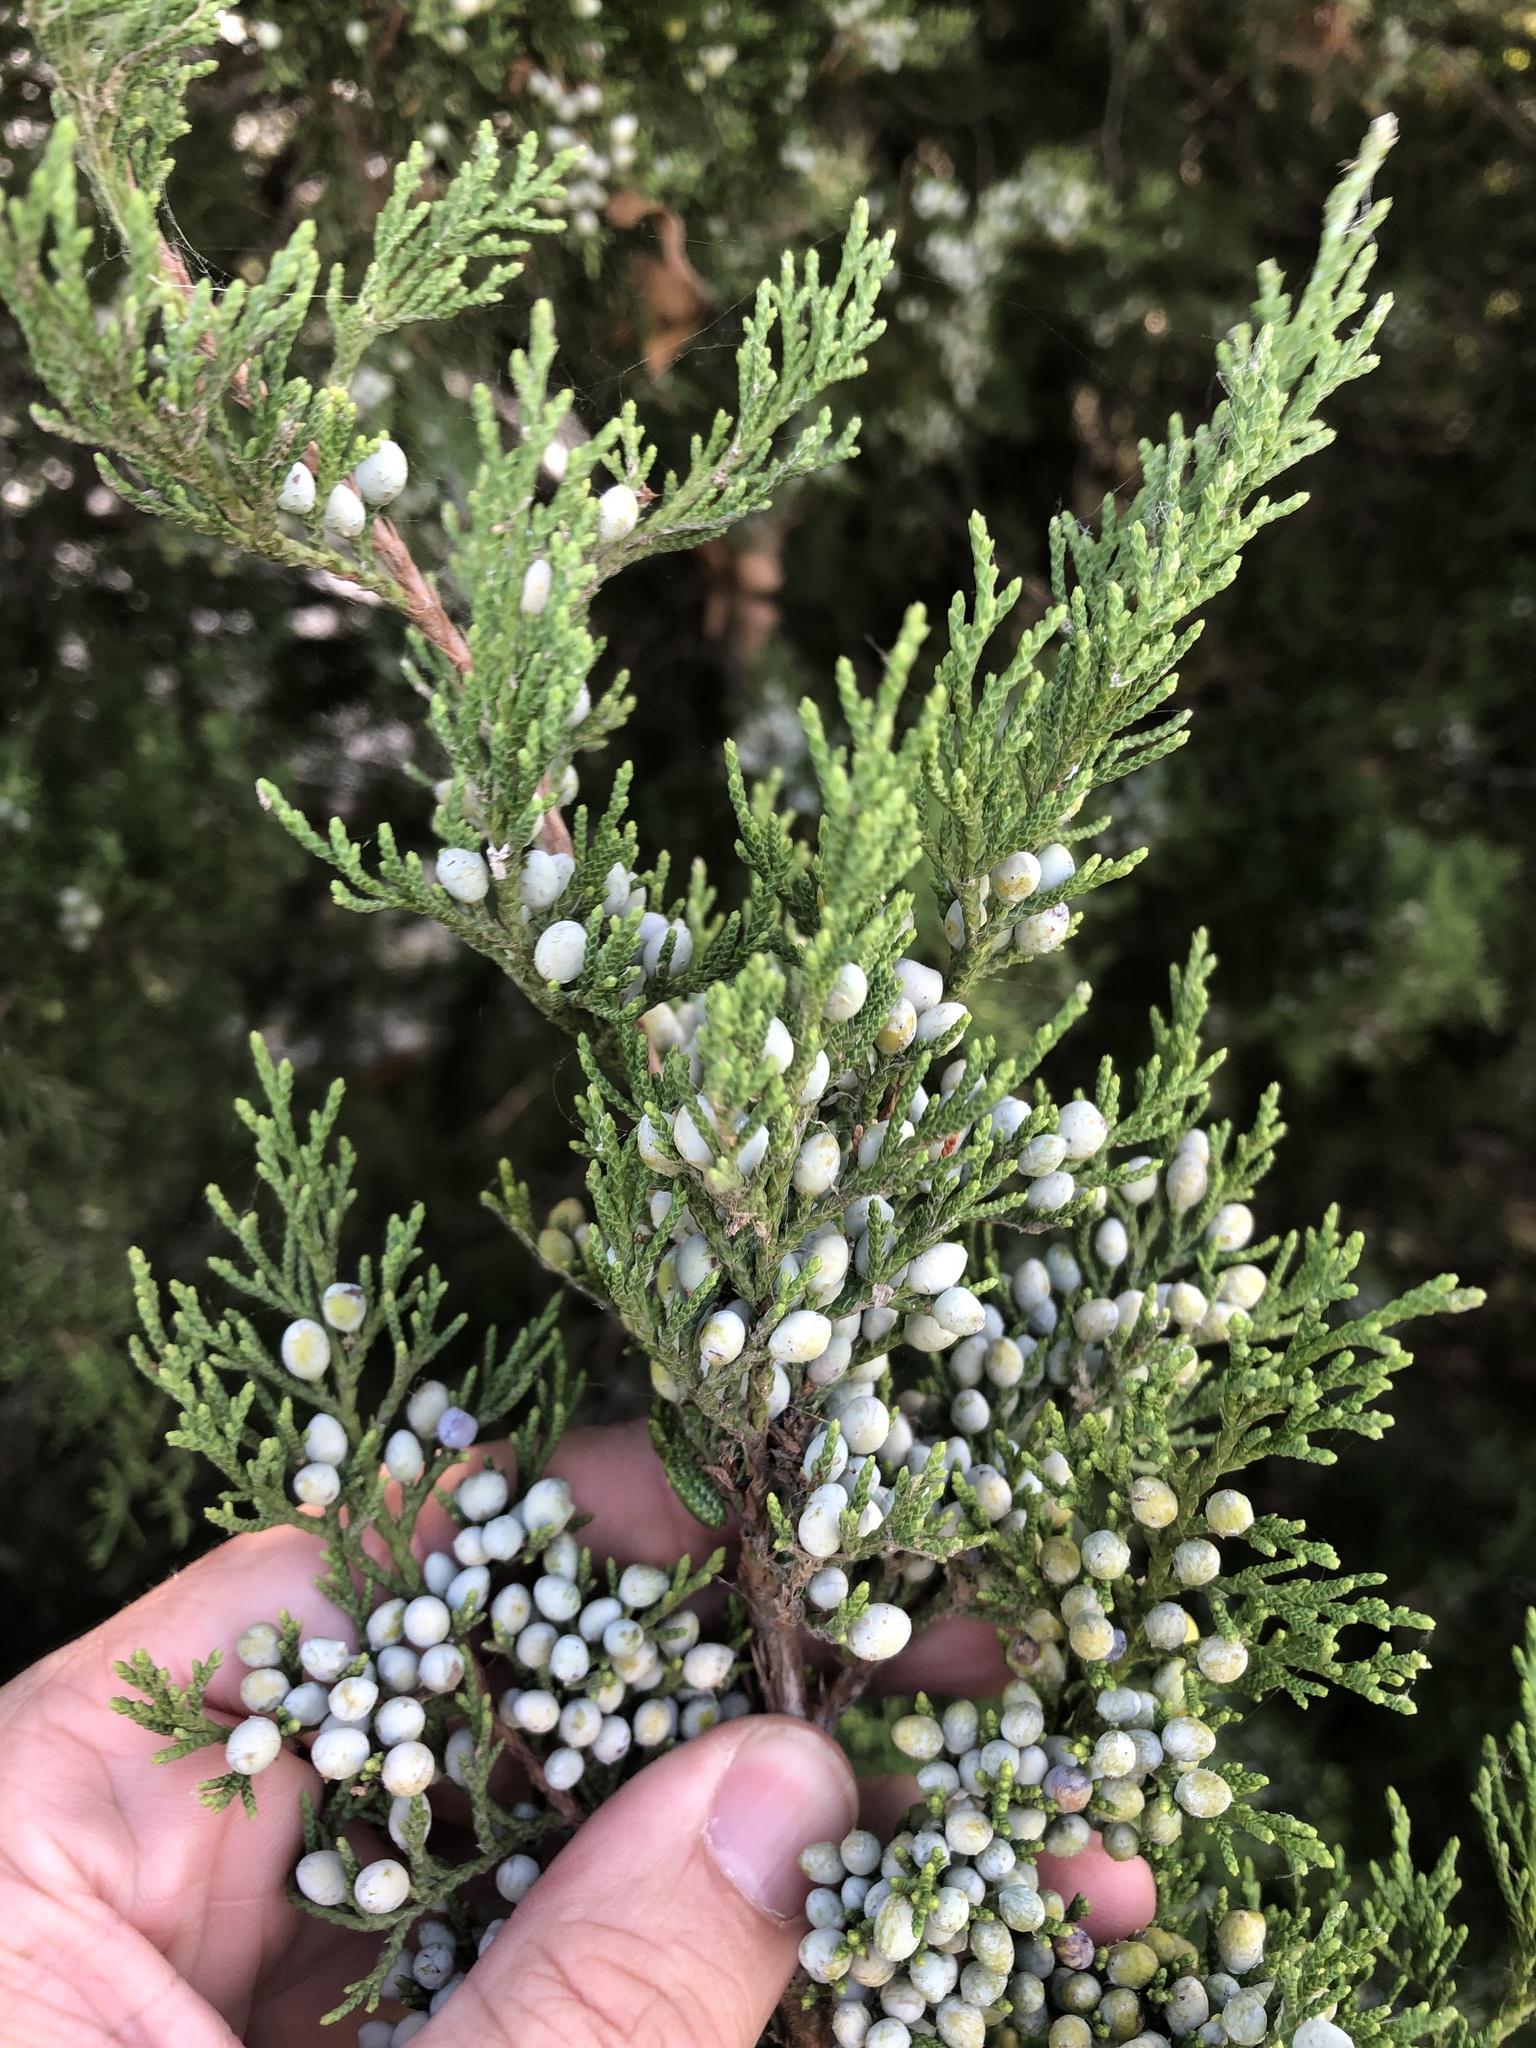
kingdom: Plantae
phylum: Tracheophyta
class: Pinopsida
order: Pinales
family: Cupressaceae
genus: Juniperus
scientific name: Juniperus virginiana
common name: Red juniper
